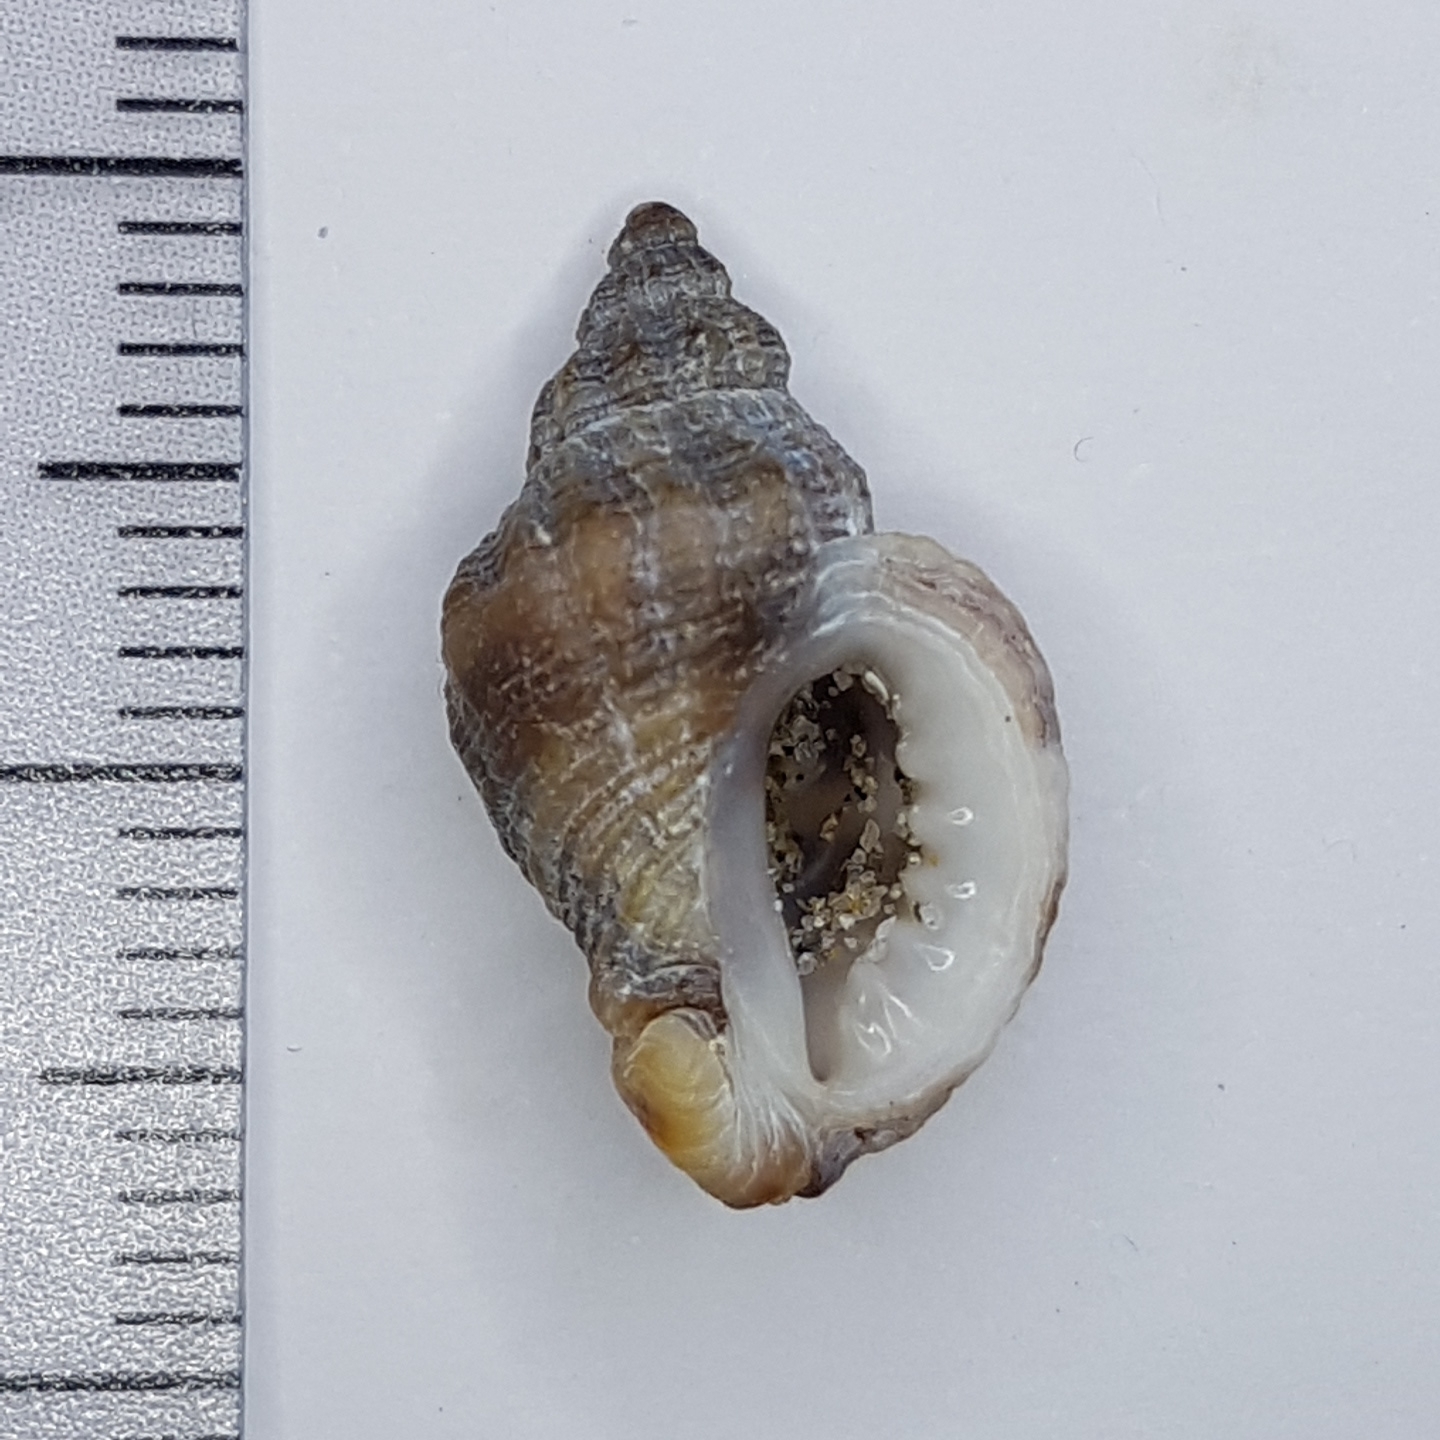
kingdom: Animalia
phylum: Mollusca
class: Gastropoda
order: Neogastropoda
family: Muricidae
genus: Ocenebra
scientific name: Ocenebra edwardsii
